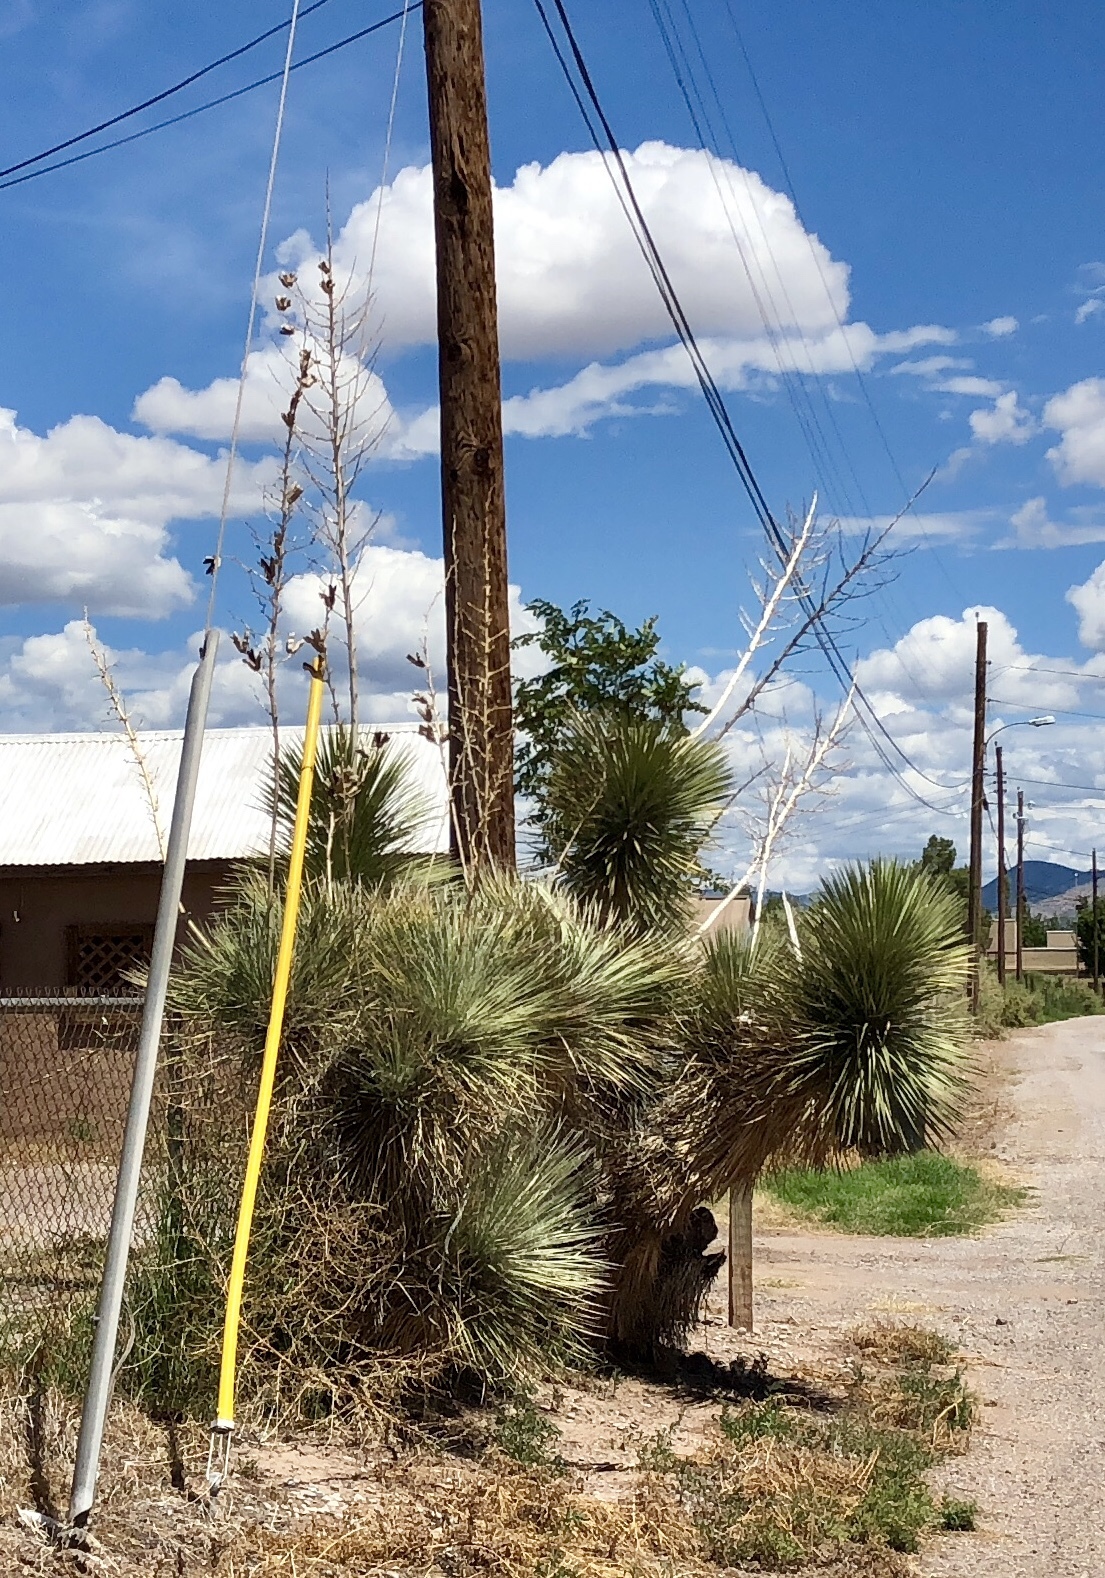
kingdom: Plantae
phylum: Tracheophyta
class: Liliopsida
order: Asparagales
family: Asparagaceae
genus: Yucca
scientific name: Yucca elata
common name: Palmella
